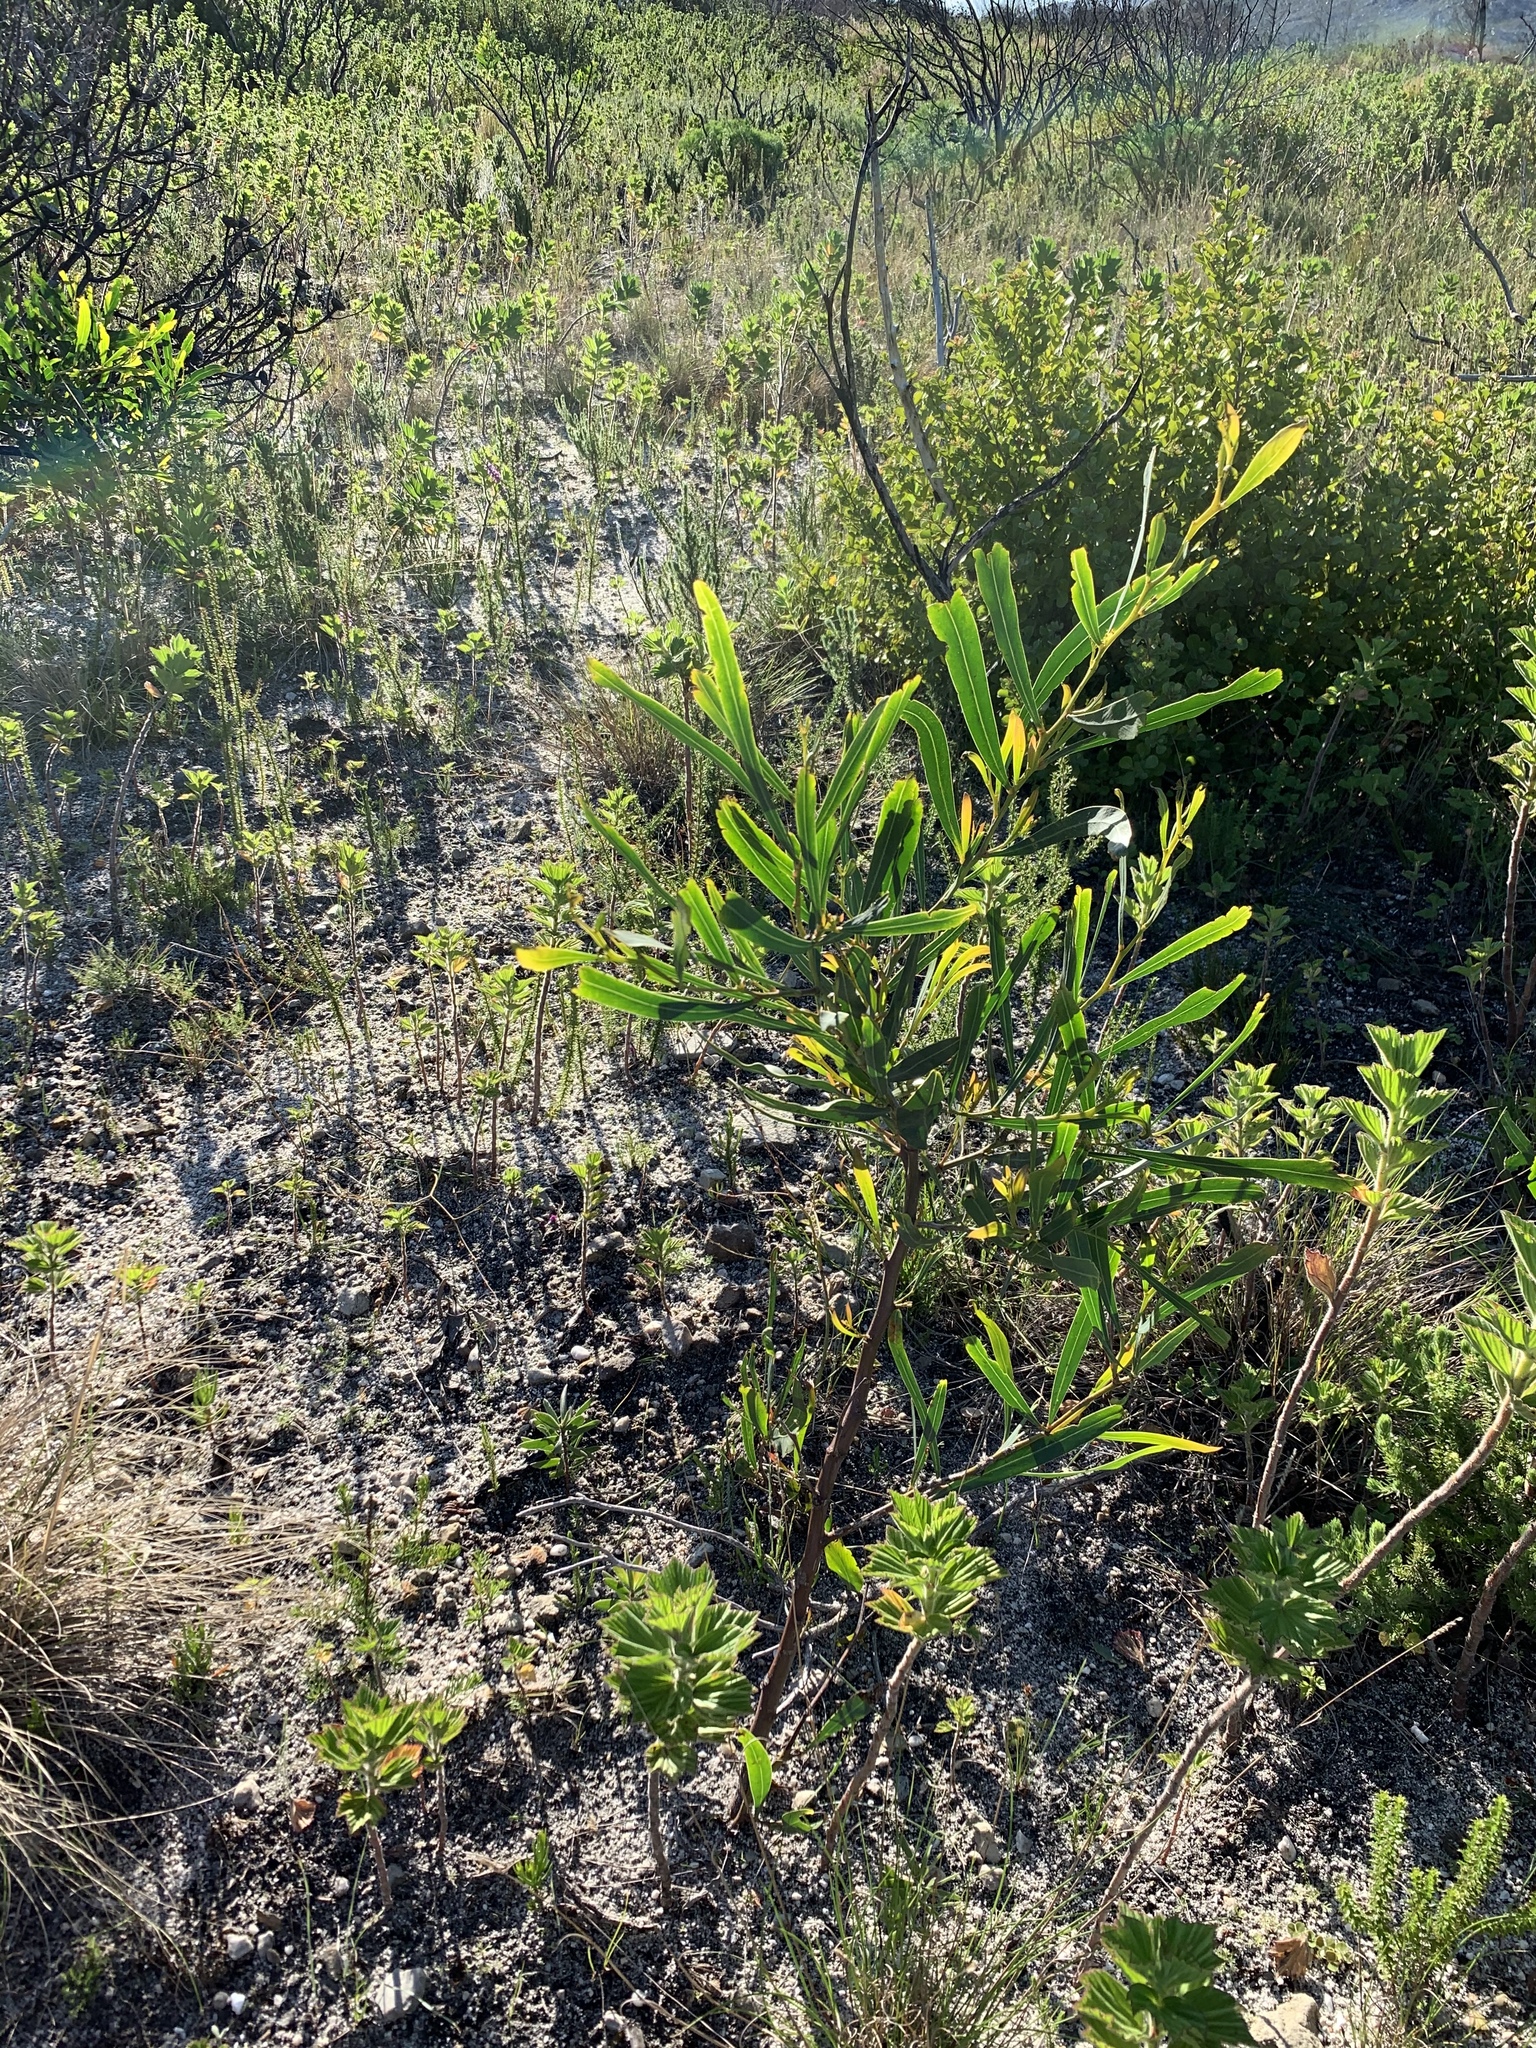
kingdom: Plantae
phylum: Tracheophyta
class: Magnoliopsida
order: Fabales
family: Fabaceae
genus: Acacia
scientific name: Acacia saligna
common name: Orange wattle
